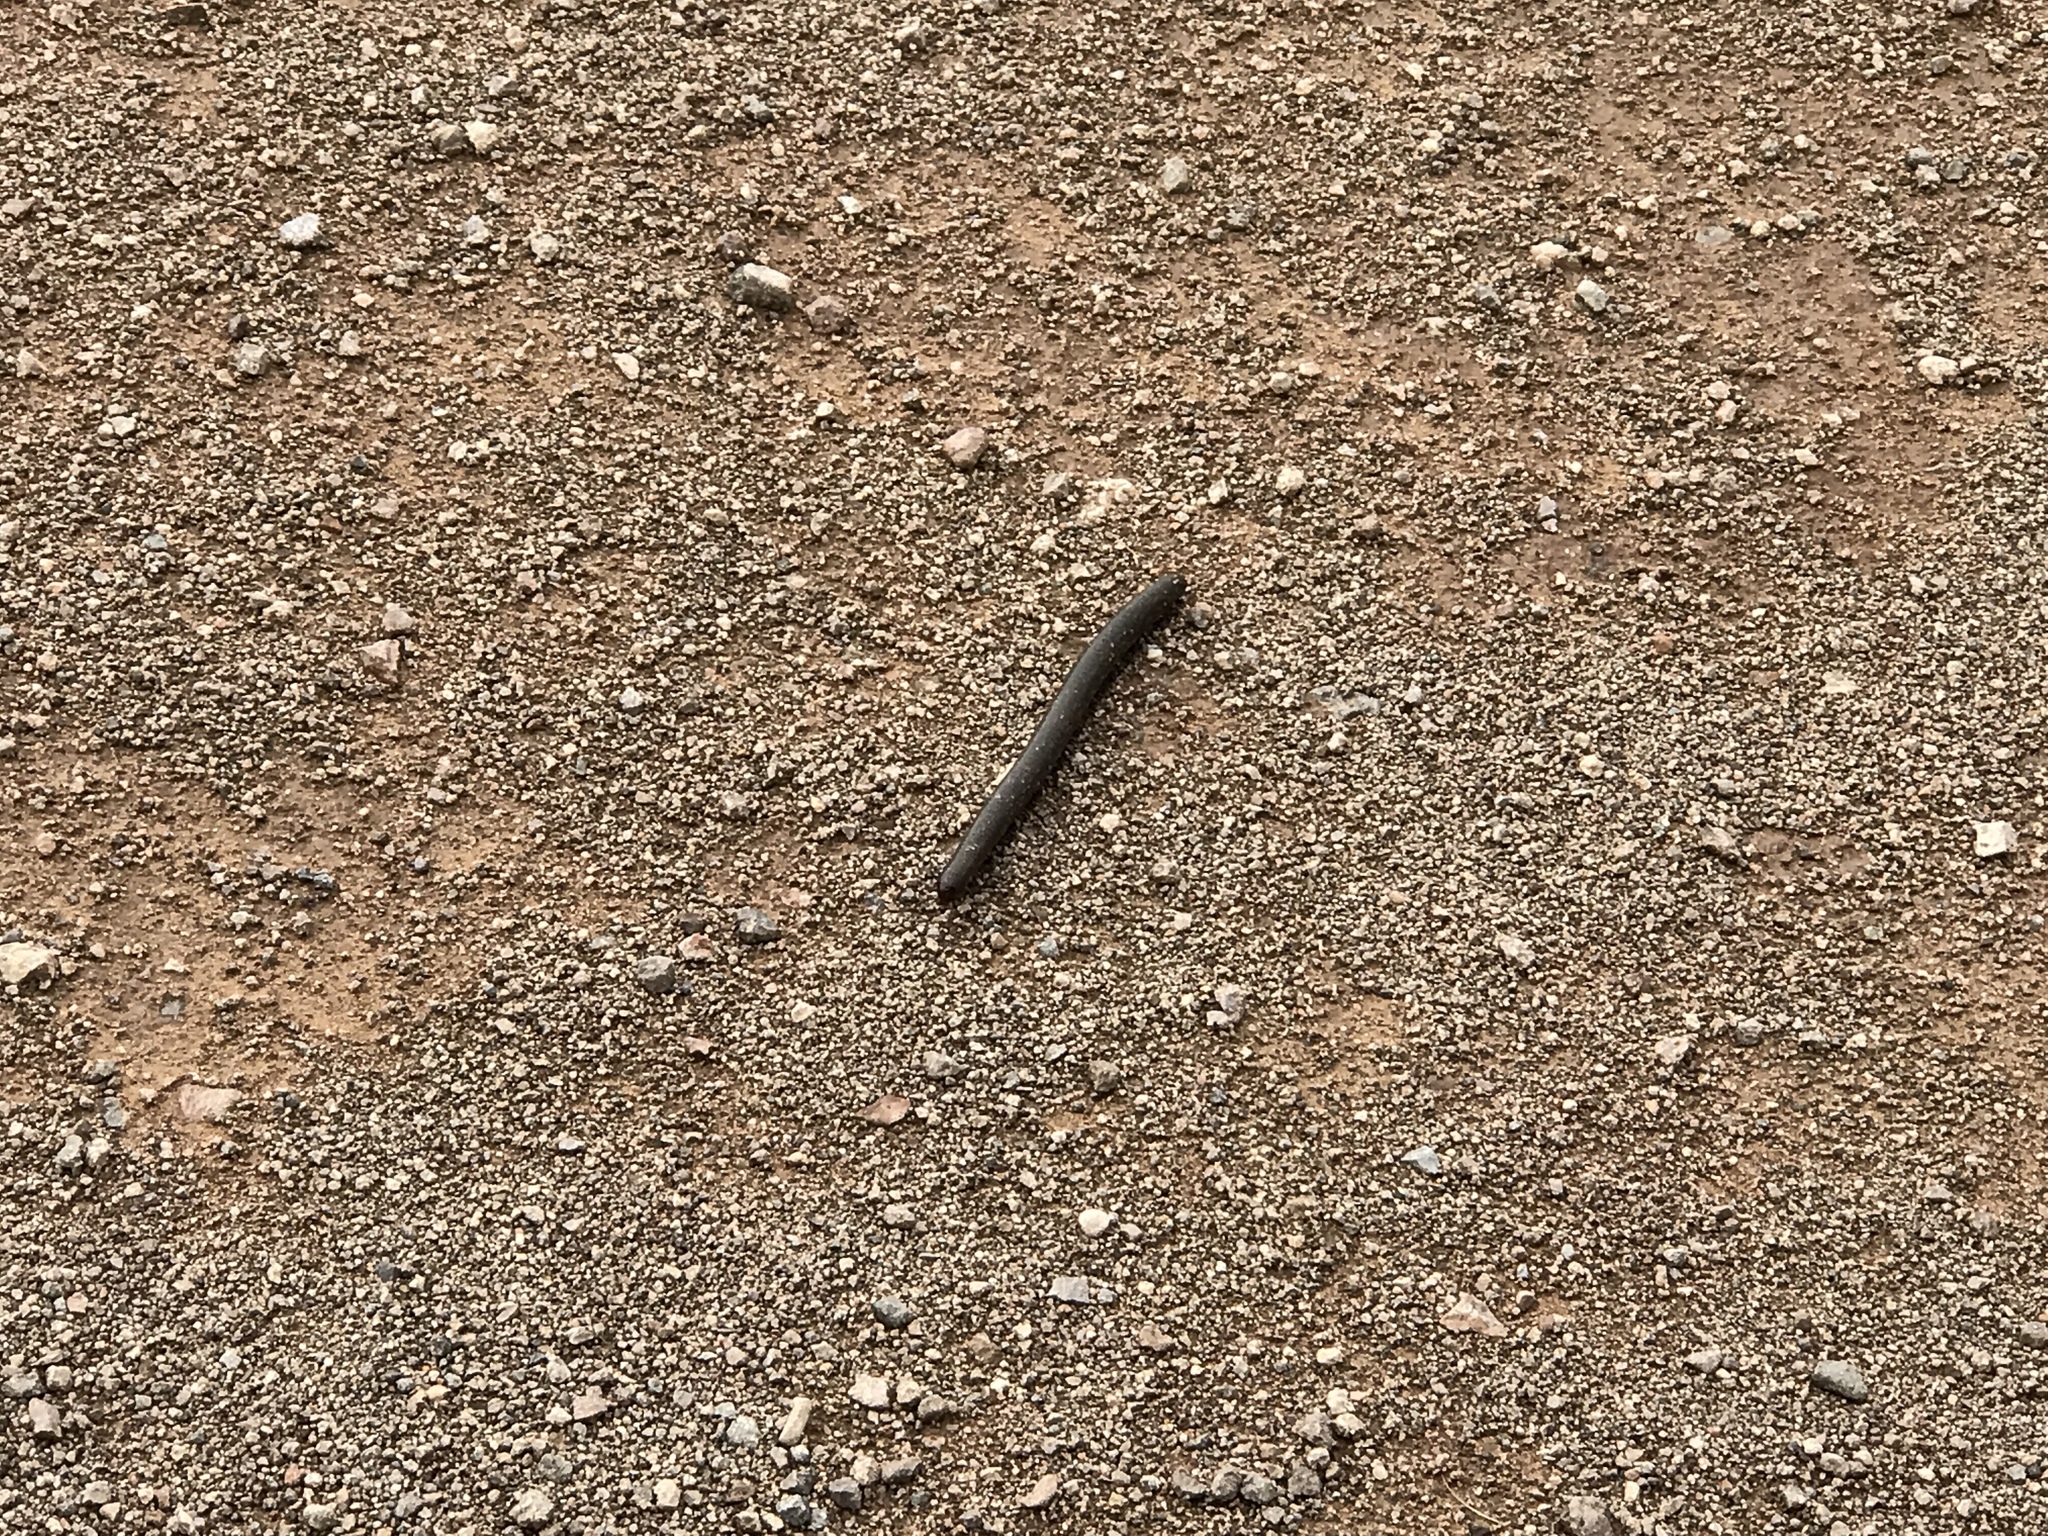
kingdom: Animalia
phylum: Arthropoda
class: Diplopoda
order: Spirostreptida
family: Spirostreptidae
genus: Orthoporus
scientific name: Orthoporus ornatus
